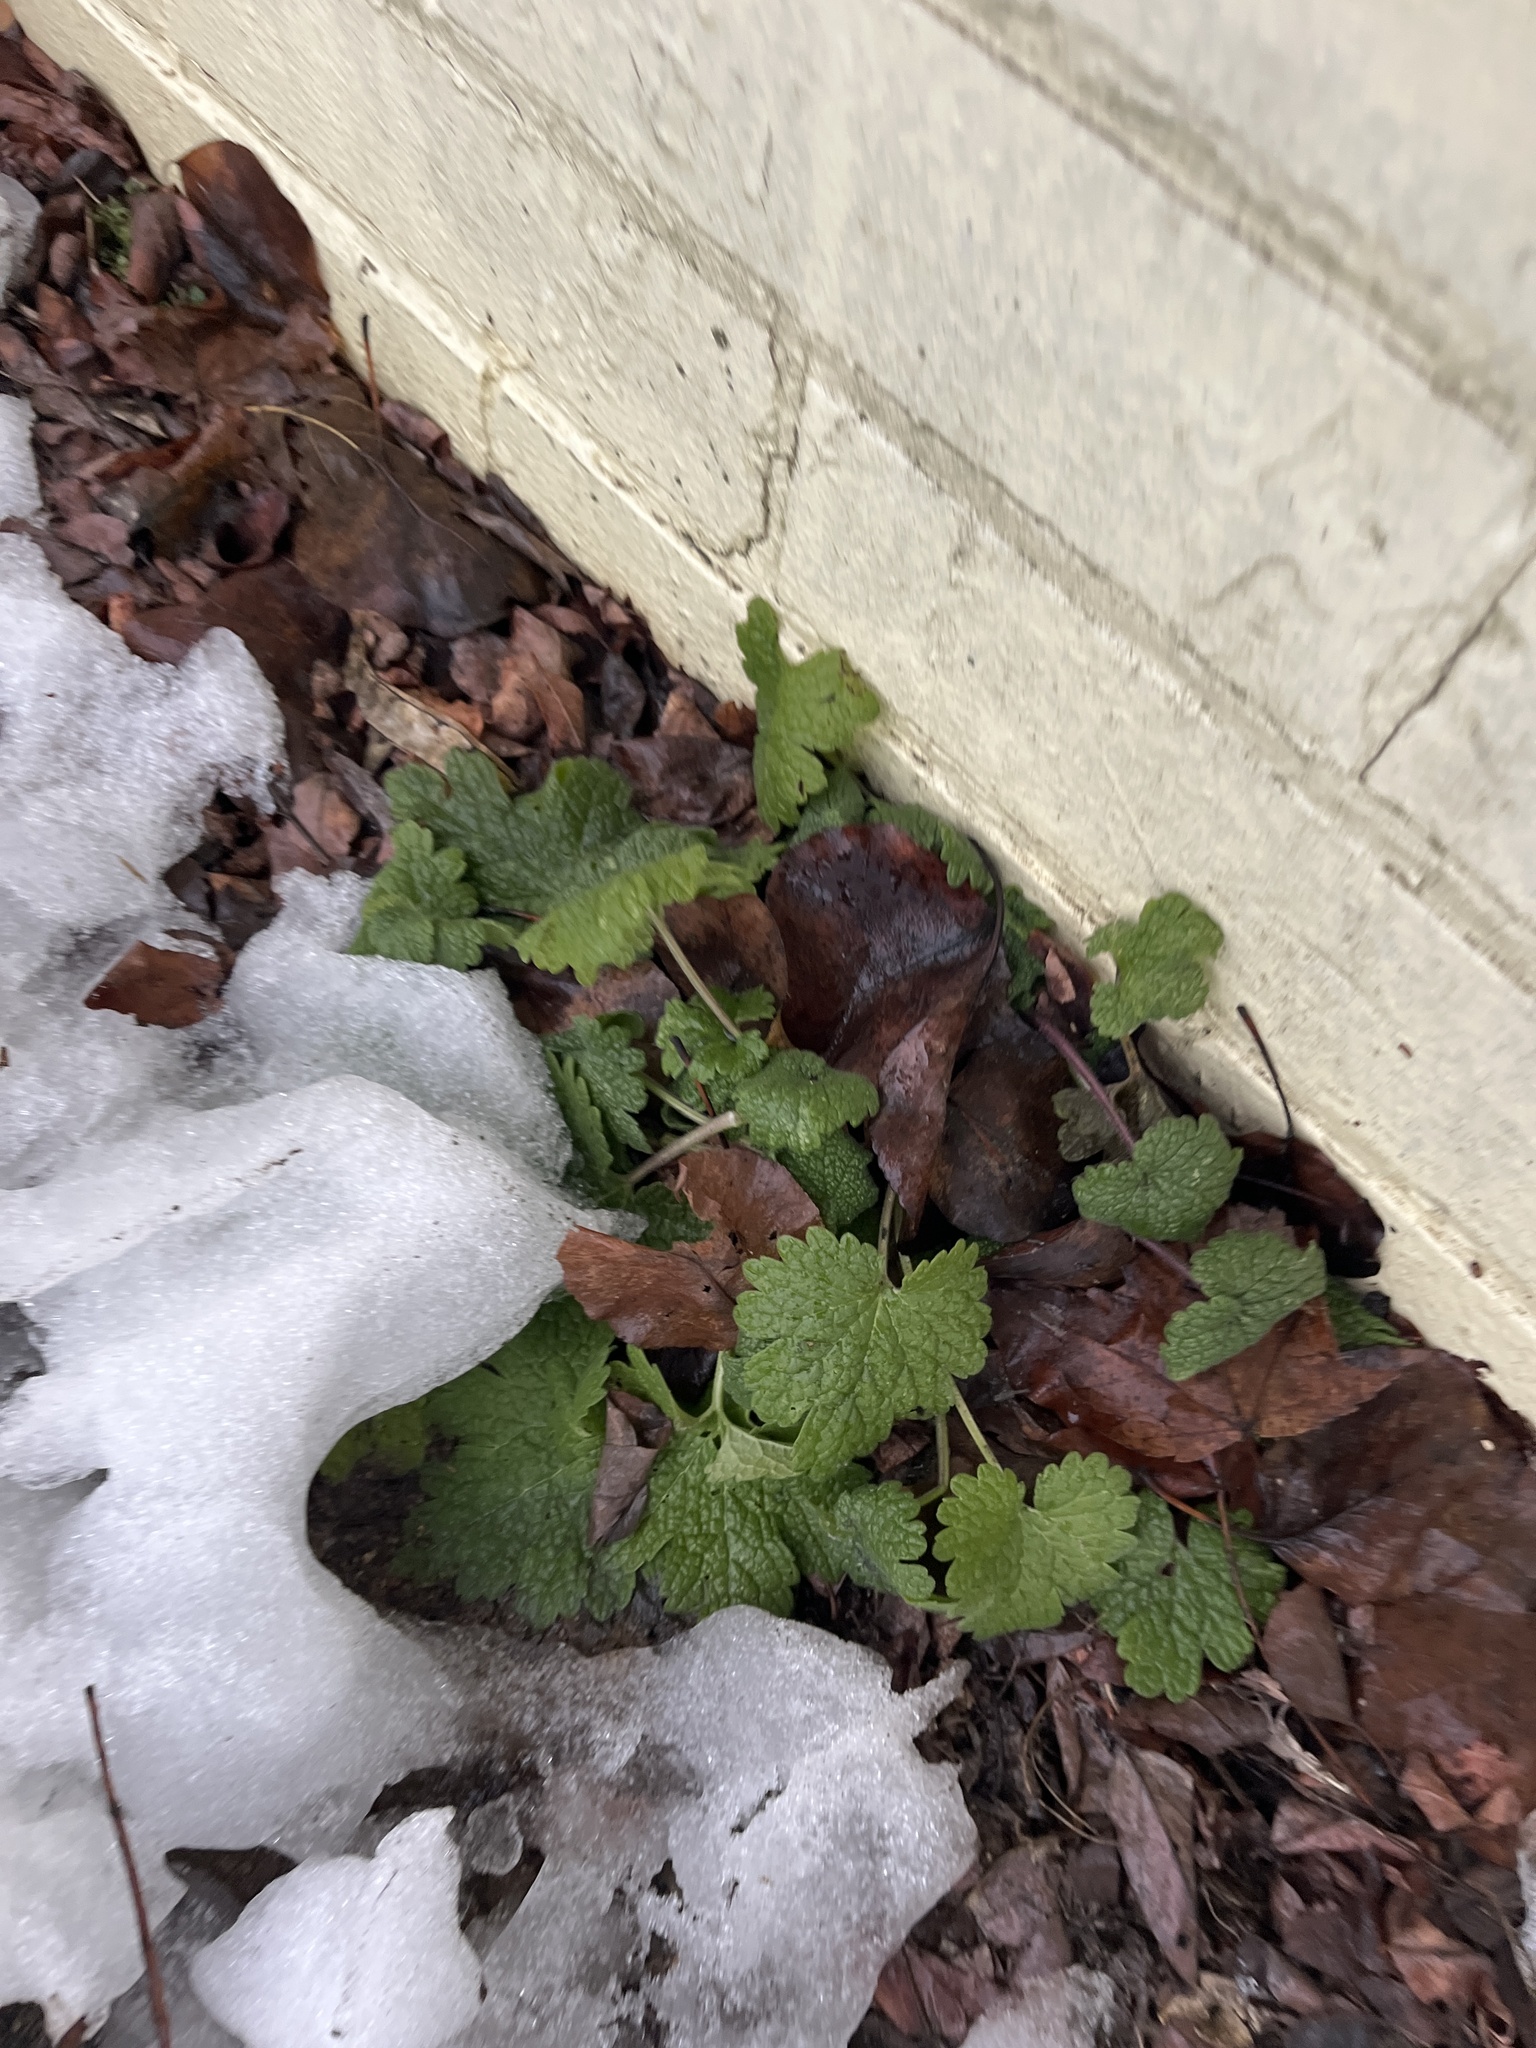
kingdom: Plantae
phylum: Tracheophyta
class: Magnoliopsida
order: Lamiales
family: Lamiaceae
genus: Leonurus
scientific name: Leonurus cardiaca
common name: Motherwort
